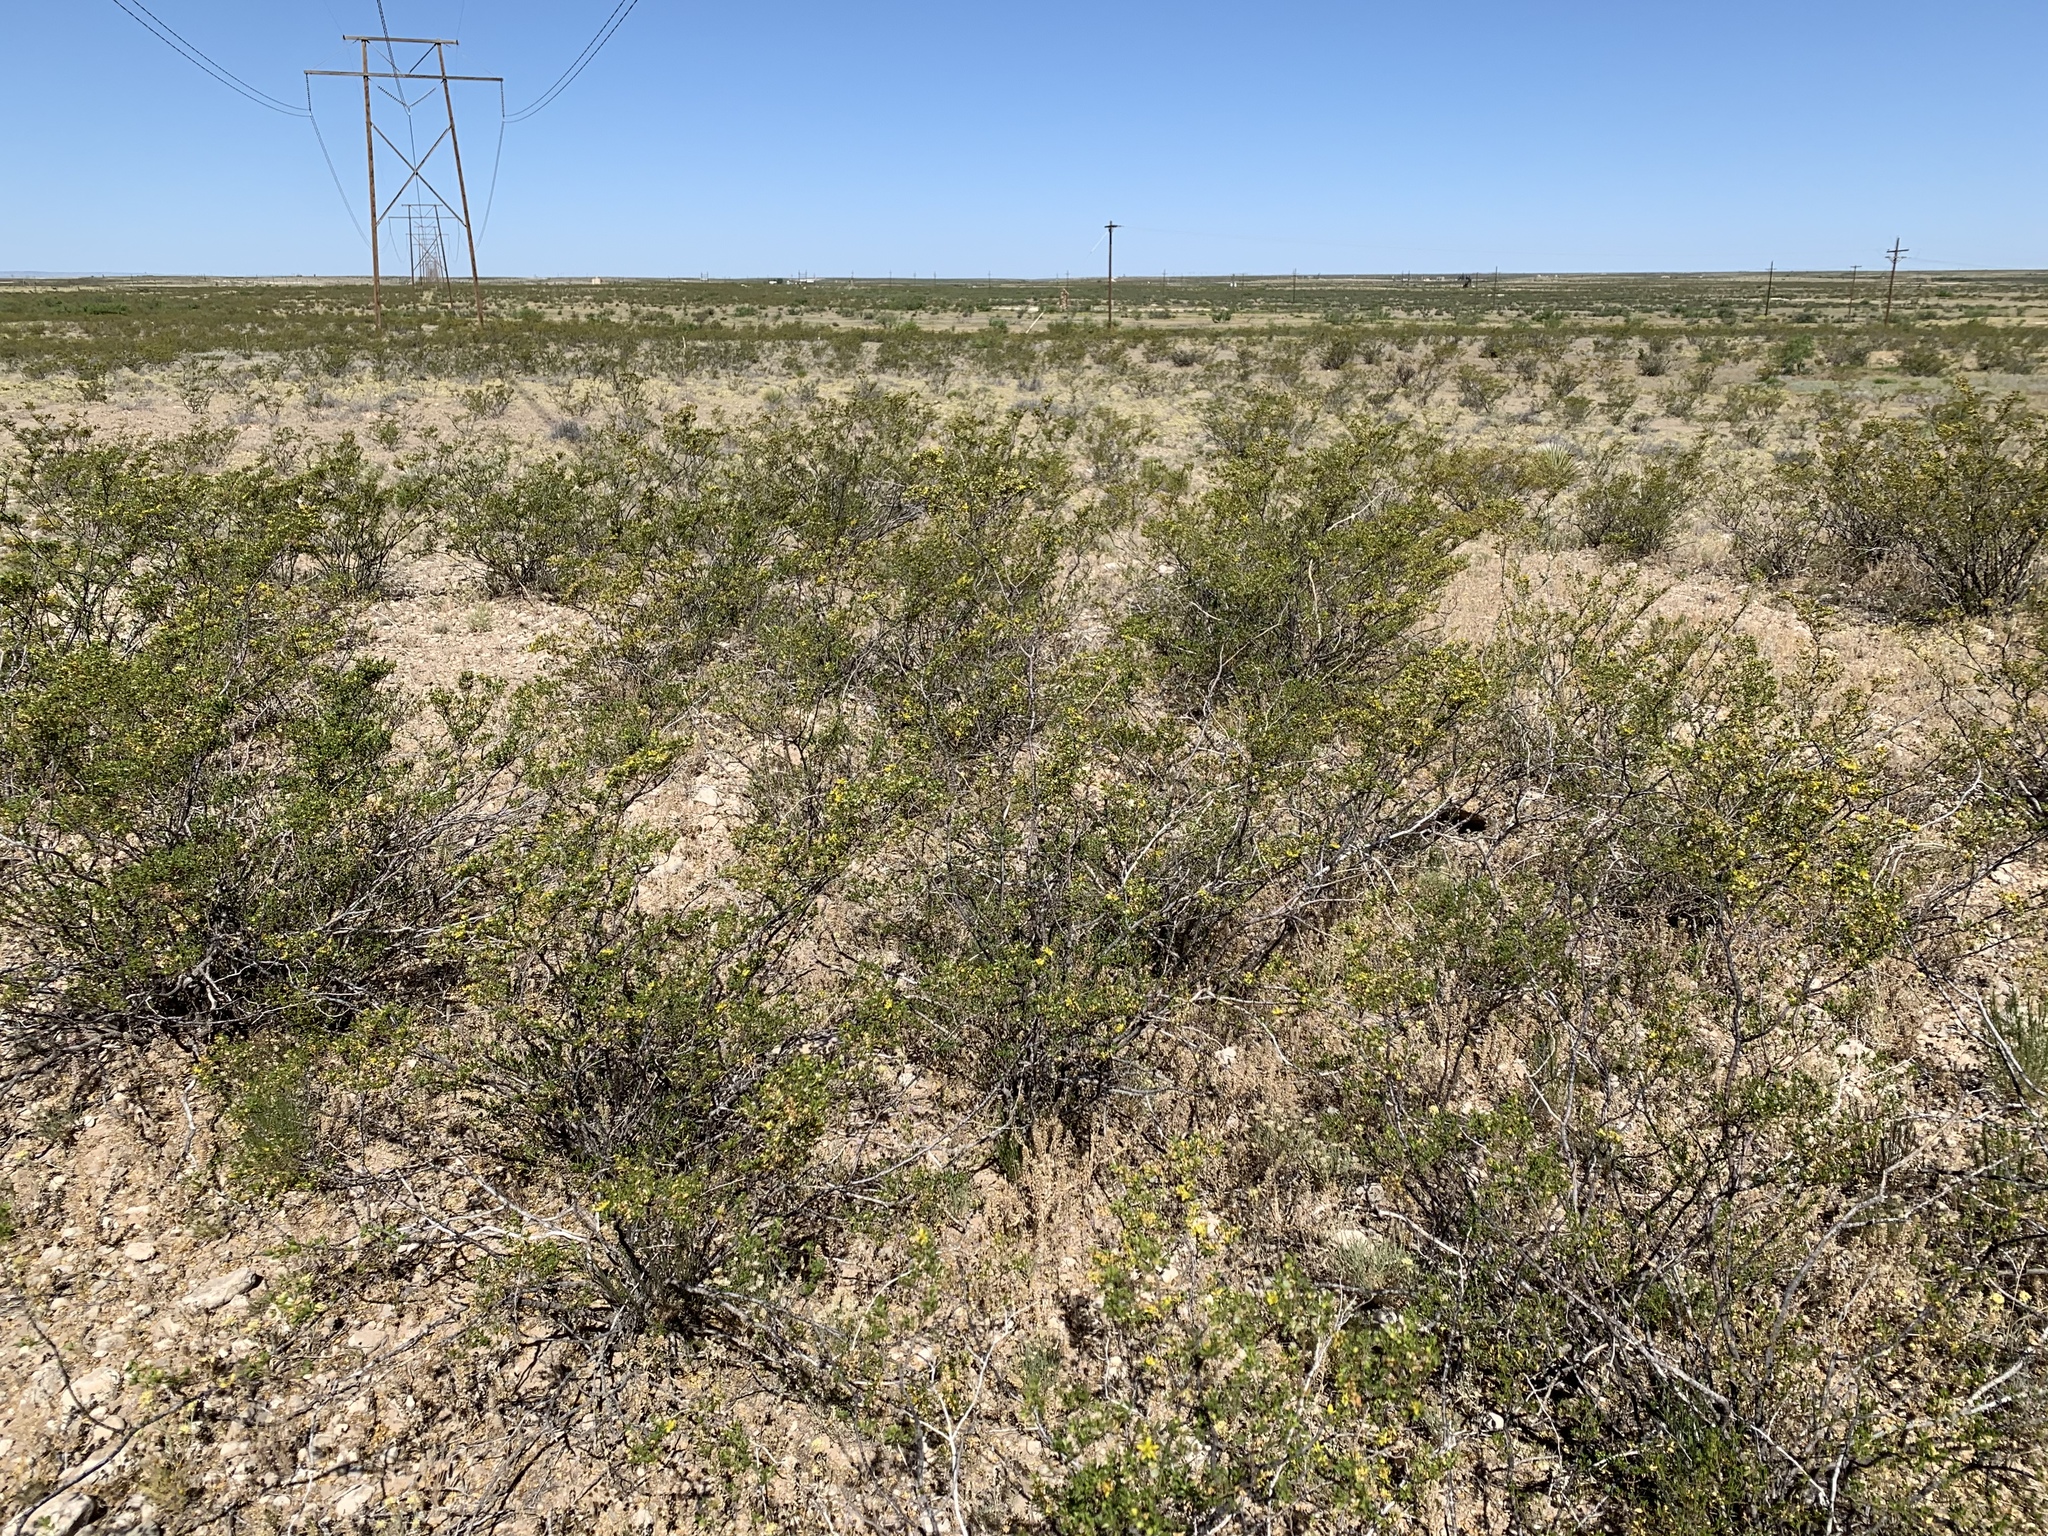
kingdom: Plantae
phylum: Tracheophyta
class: Magnoliopsida
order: Zygophyllales
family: Zygophyllaceae
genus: Larrea
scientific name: Larrea tridentata
